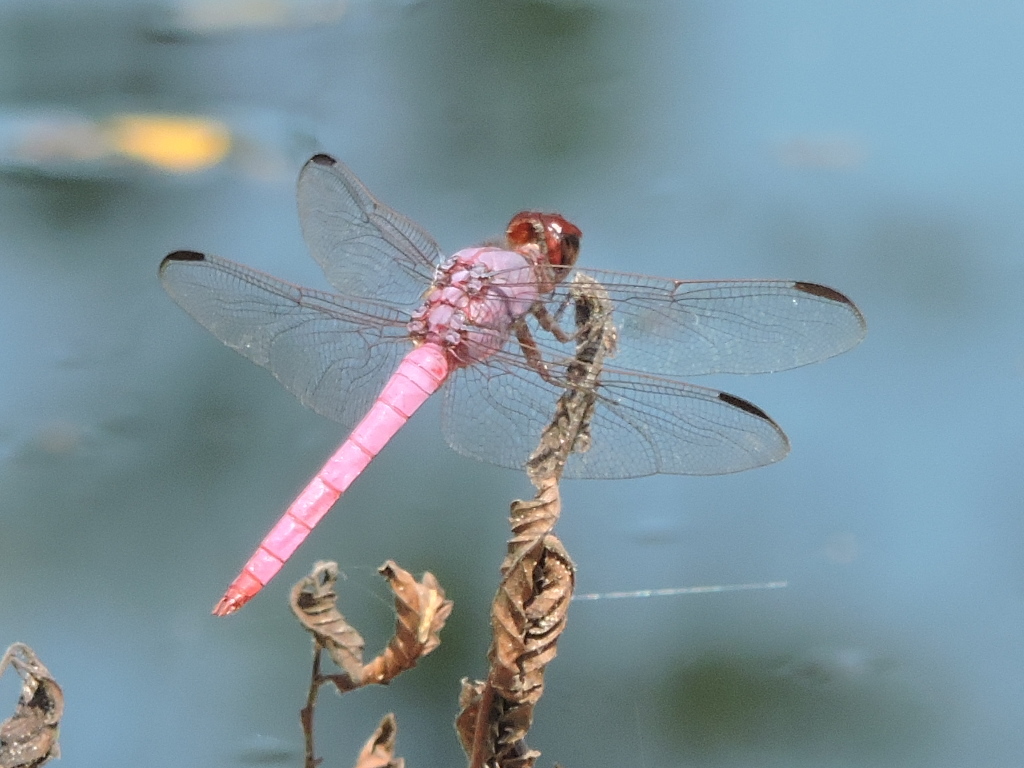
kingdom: Animalia
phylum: Arthropoda
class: Insecta
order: Odonata
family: Libellulidae
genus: Orthemis
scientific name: Orthemis ferruginea
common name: Roseate skimmer
